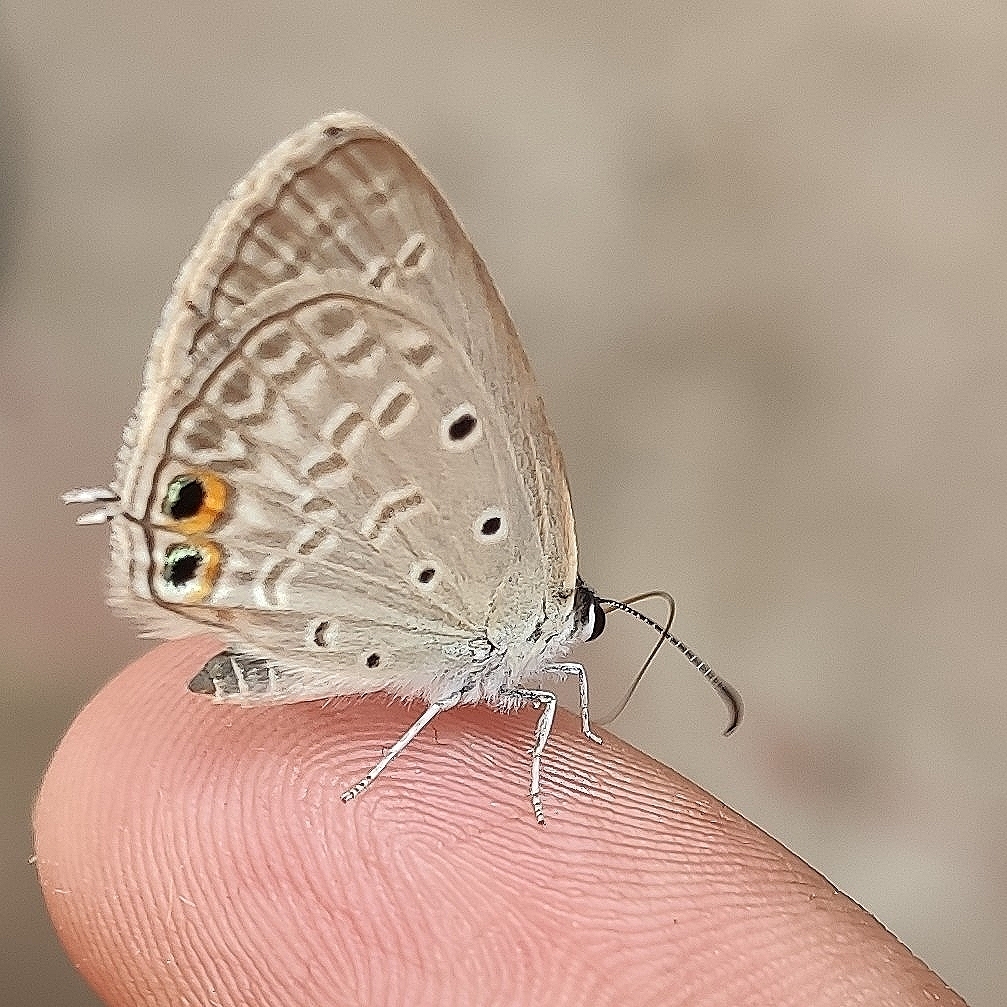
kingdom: Animalia
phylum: Arthropoda
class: Insecta
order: Lepidoptera
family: Lycaenidae
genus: Euchrysops
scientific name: Euchrysops cnejus
